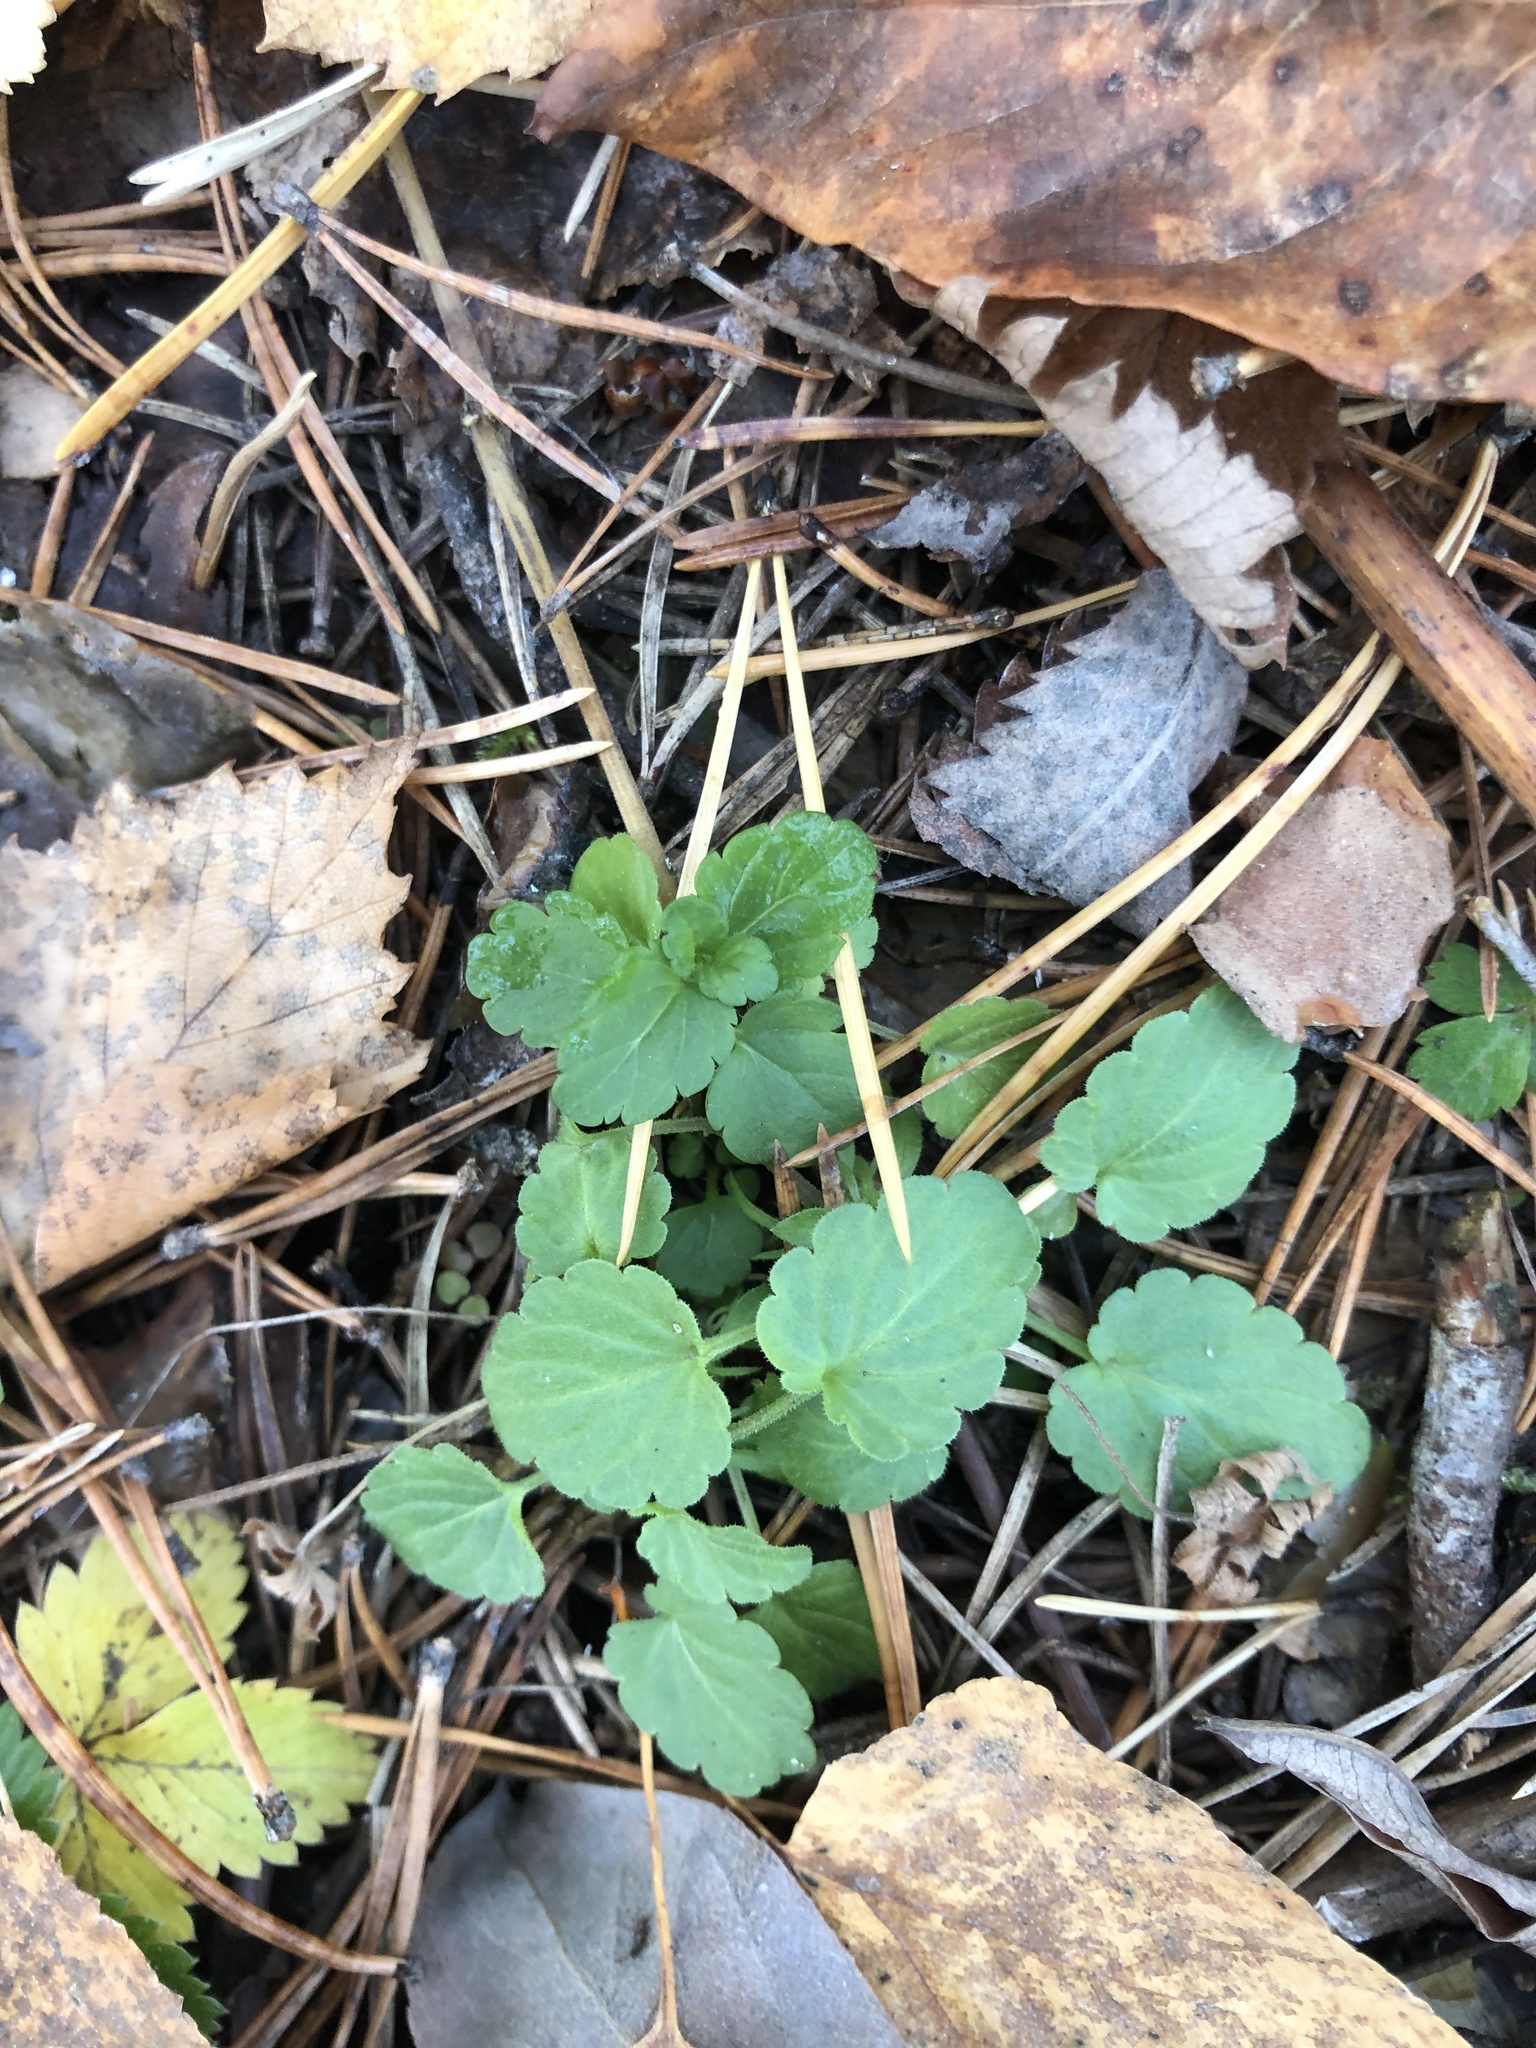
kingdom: Plantae
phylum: Tracheophyta
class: Magnoliopsida
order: Lamiales
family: Plantaginaceae
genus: Veronica
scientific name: Veronica chamaedrys
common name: Germander speedwell
